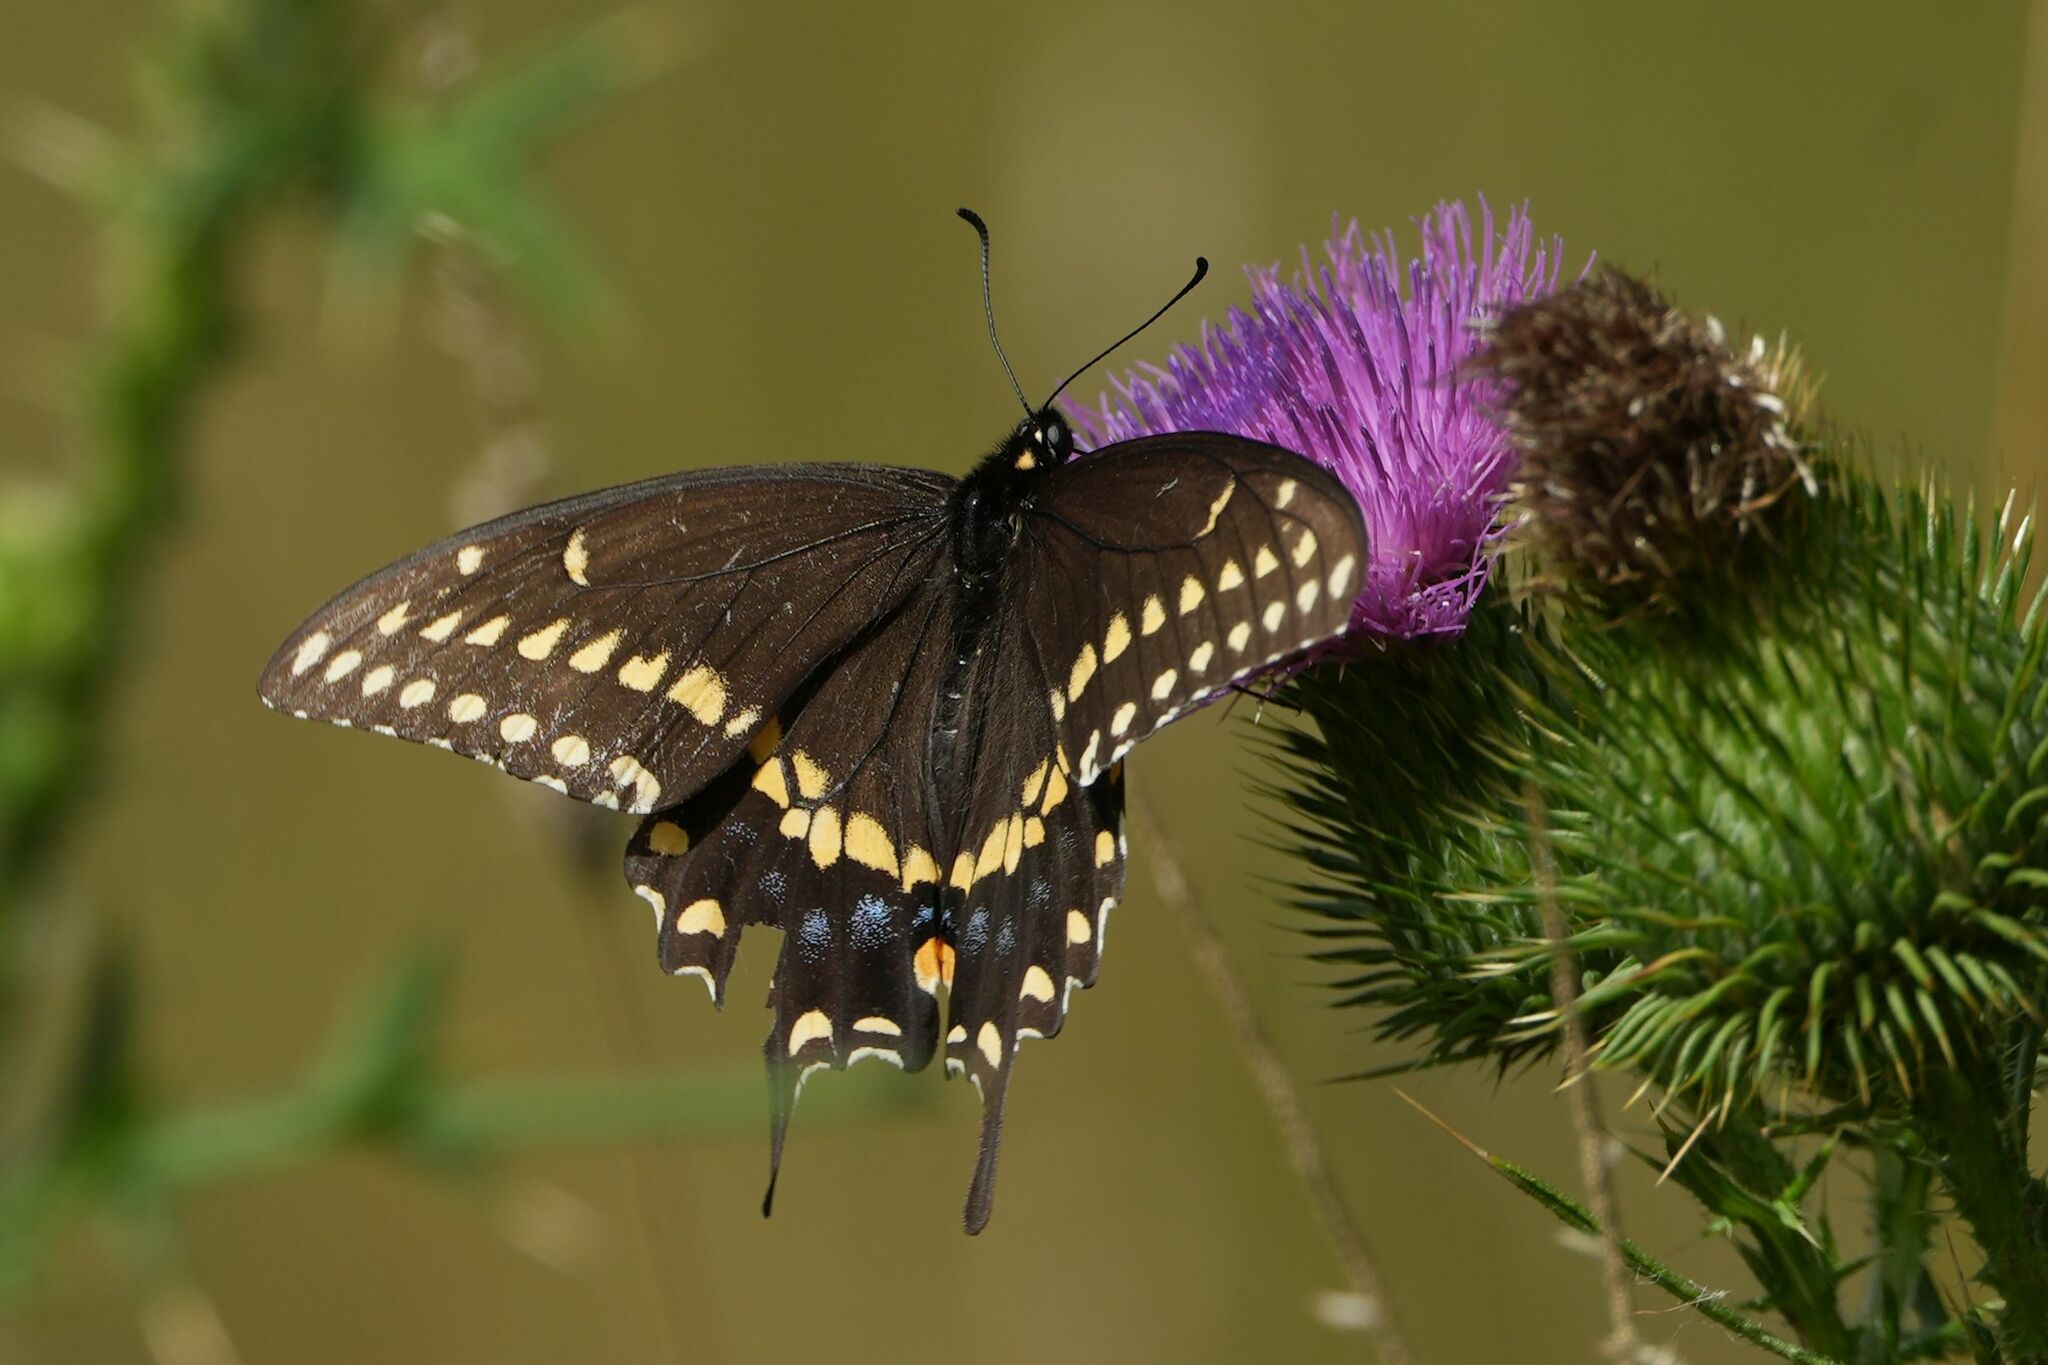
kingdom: Animalia
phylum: Arthropoda
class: Insecta
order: Lepidoptera
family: Papilionidae
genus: Papilio
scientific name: Papilio polyxenes
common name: Black swallowtail
